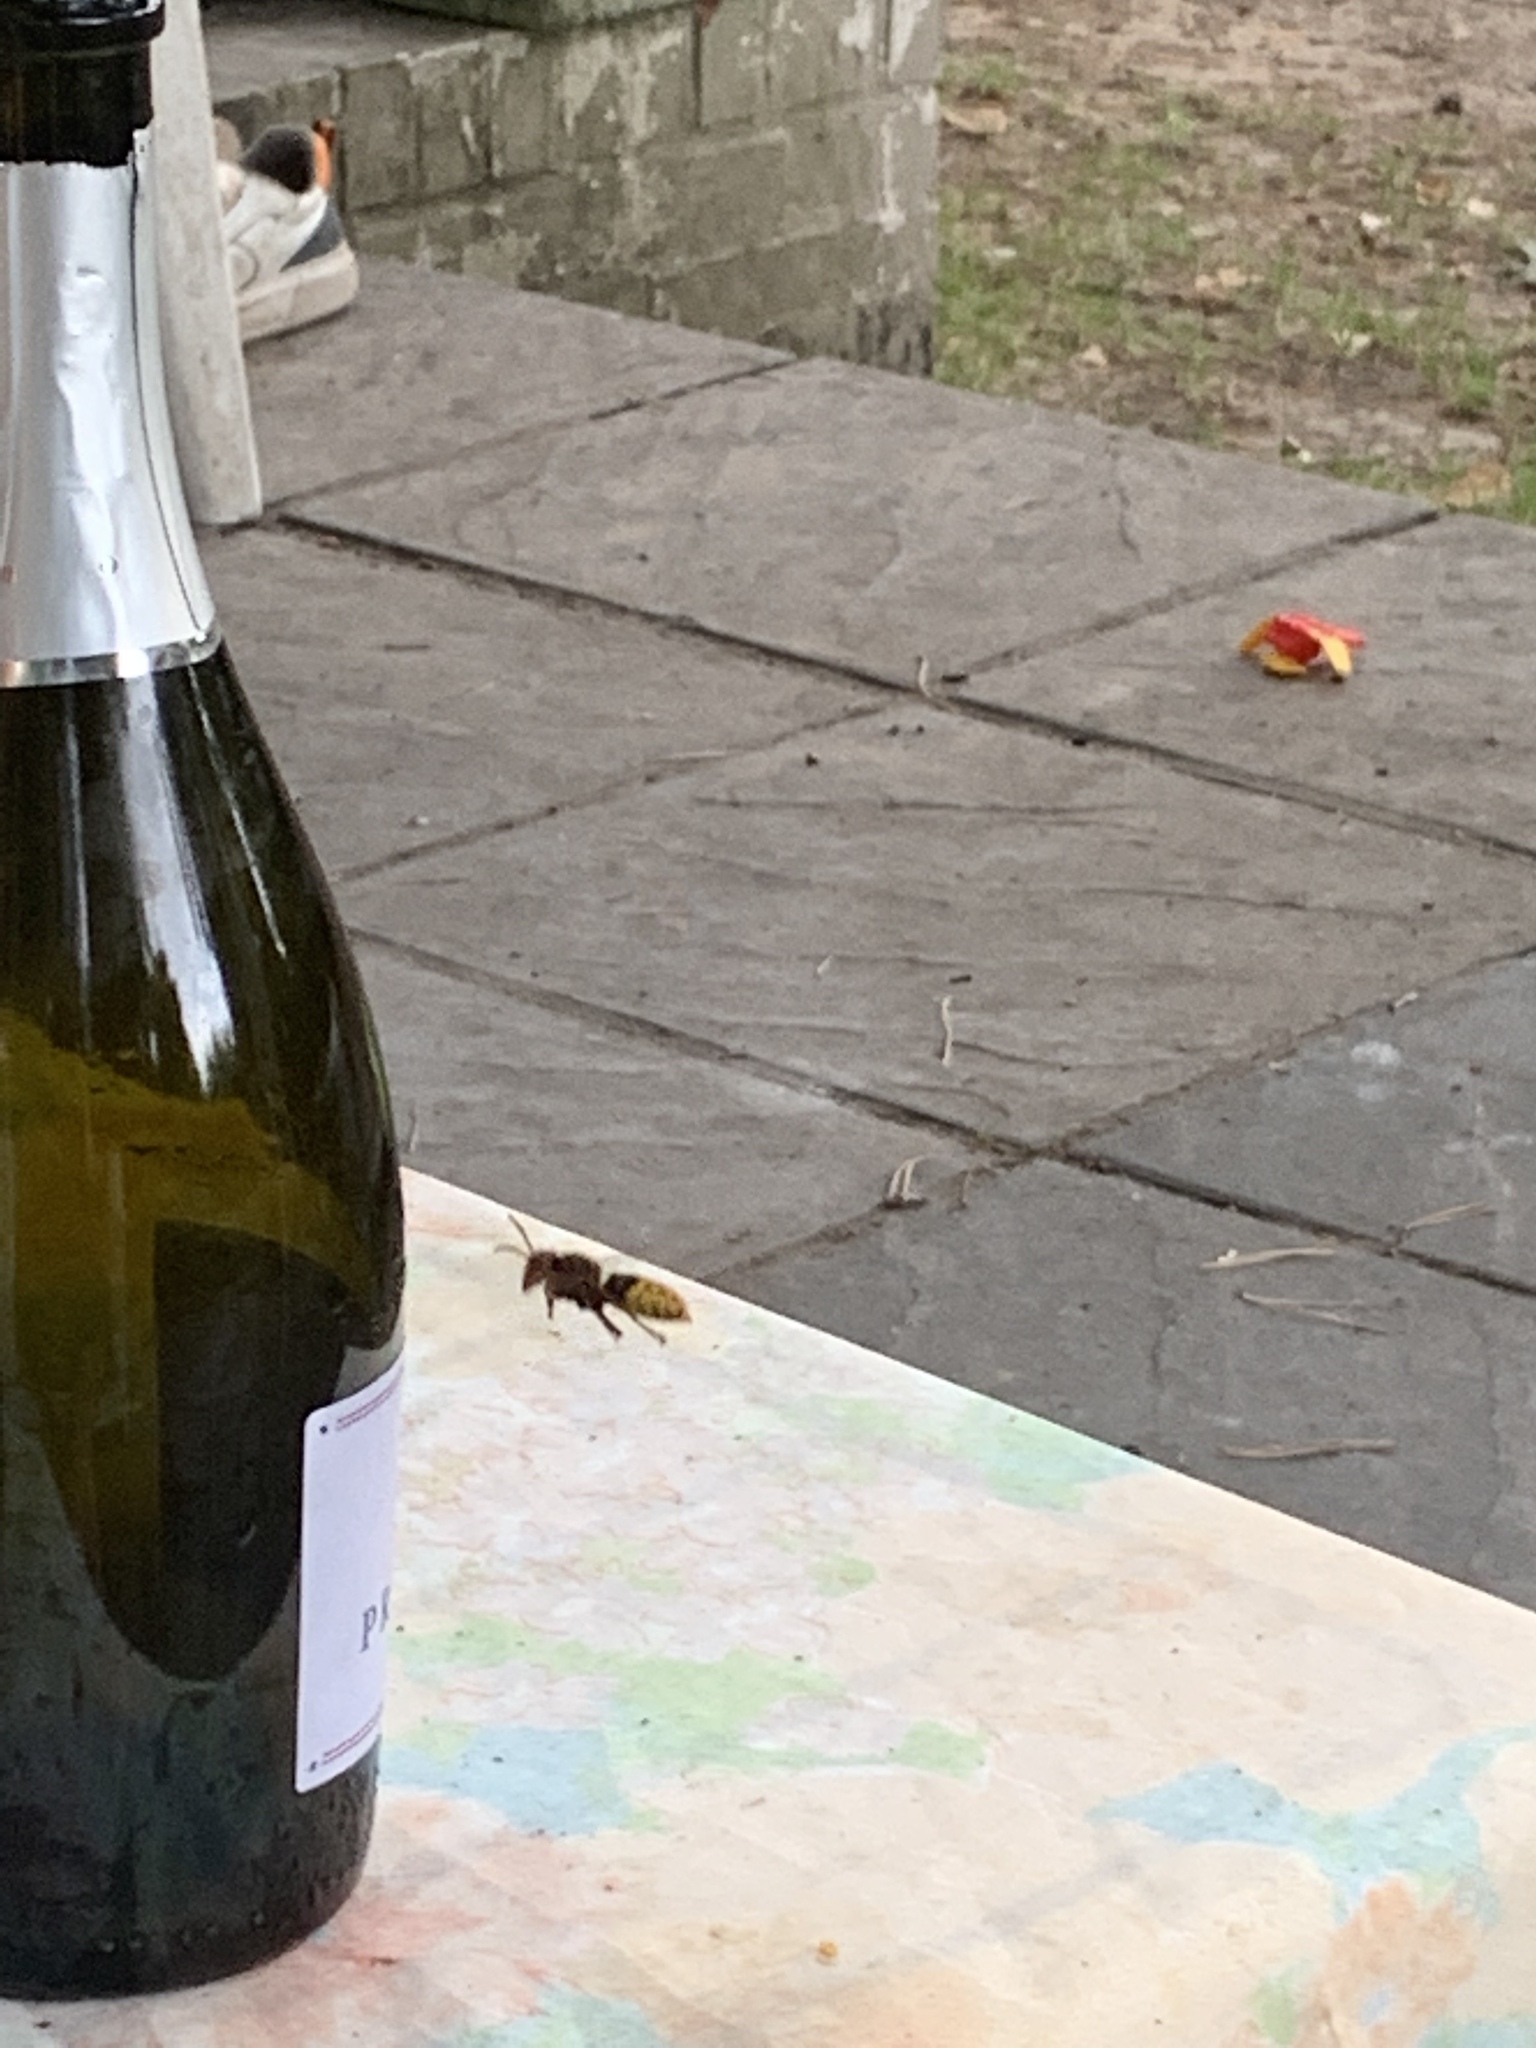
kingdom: Animalia
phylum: Arthropoda
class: Insecta
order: Hymenoptera
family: Vespidae
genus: Vespa
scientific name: Vespa crabro
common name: Hornet
